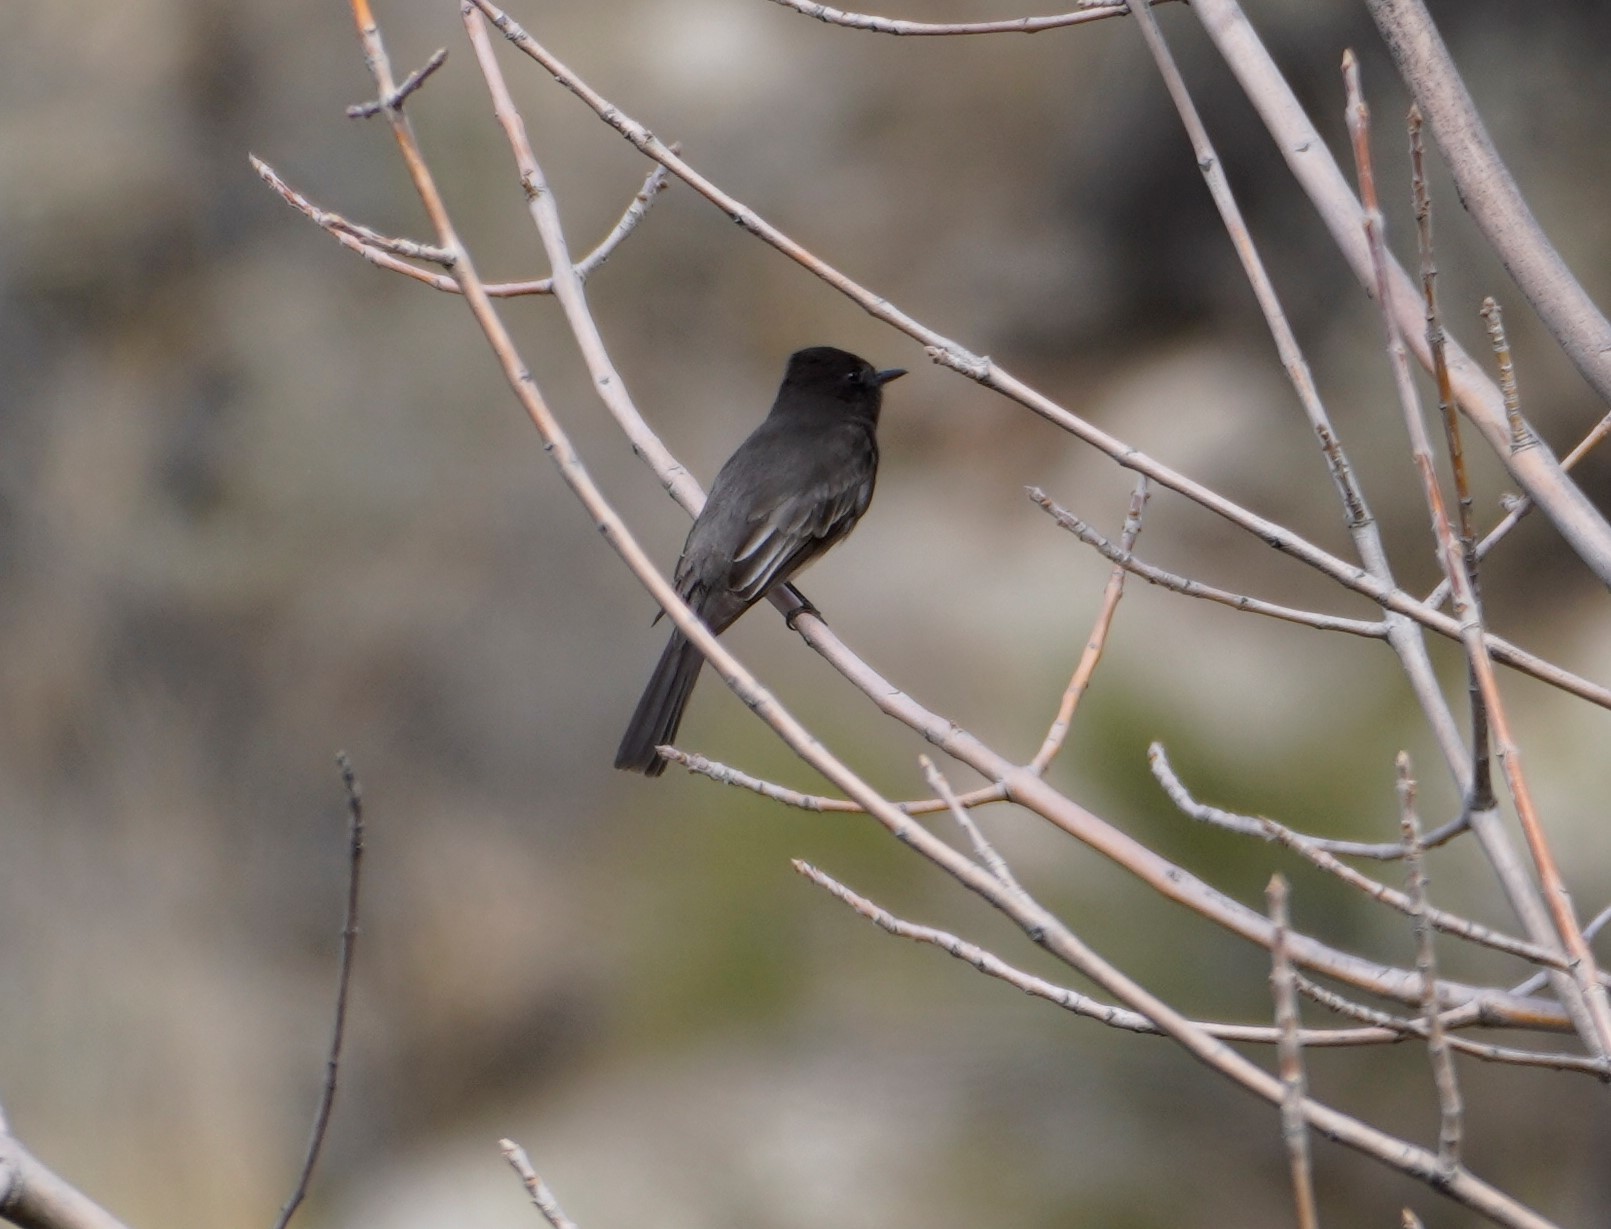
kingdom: Animalia
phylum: Chordata
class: Aves
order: Passeriformes
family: Tyrannidae
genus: Sayornis
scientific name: Sayornis nigricans
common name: Black phoebe
